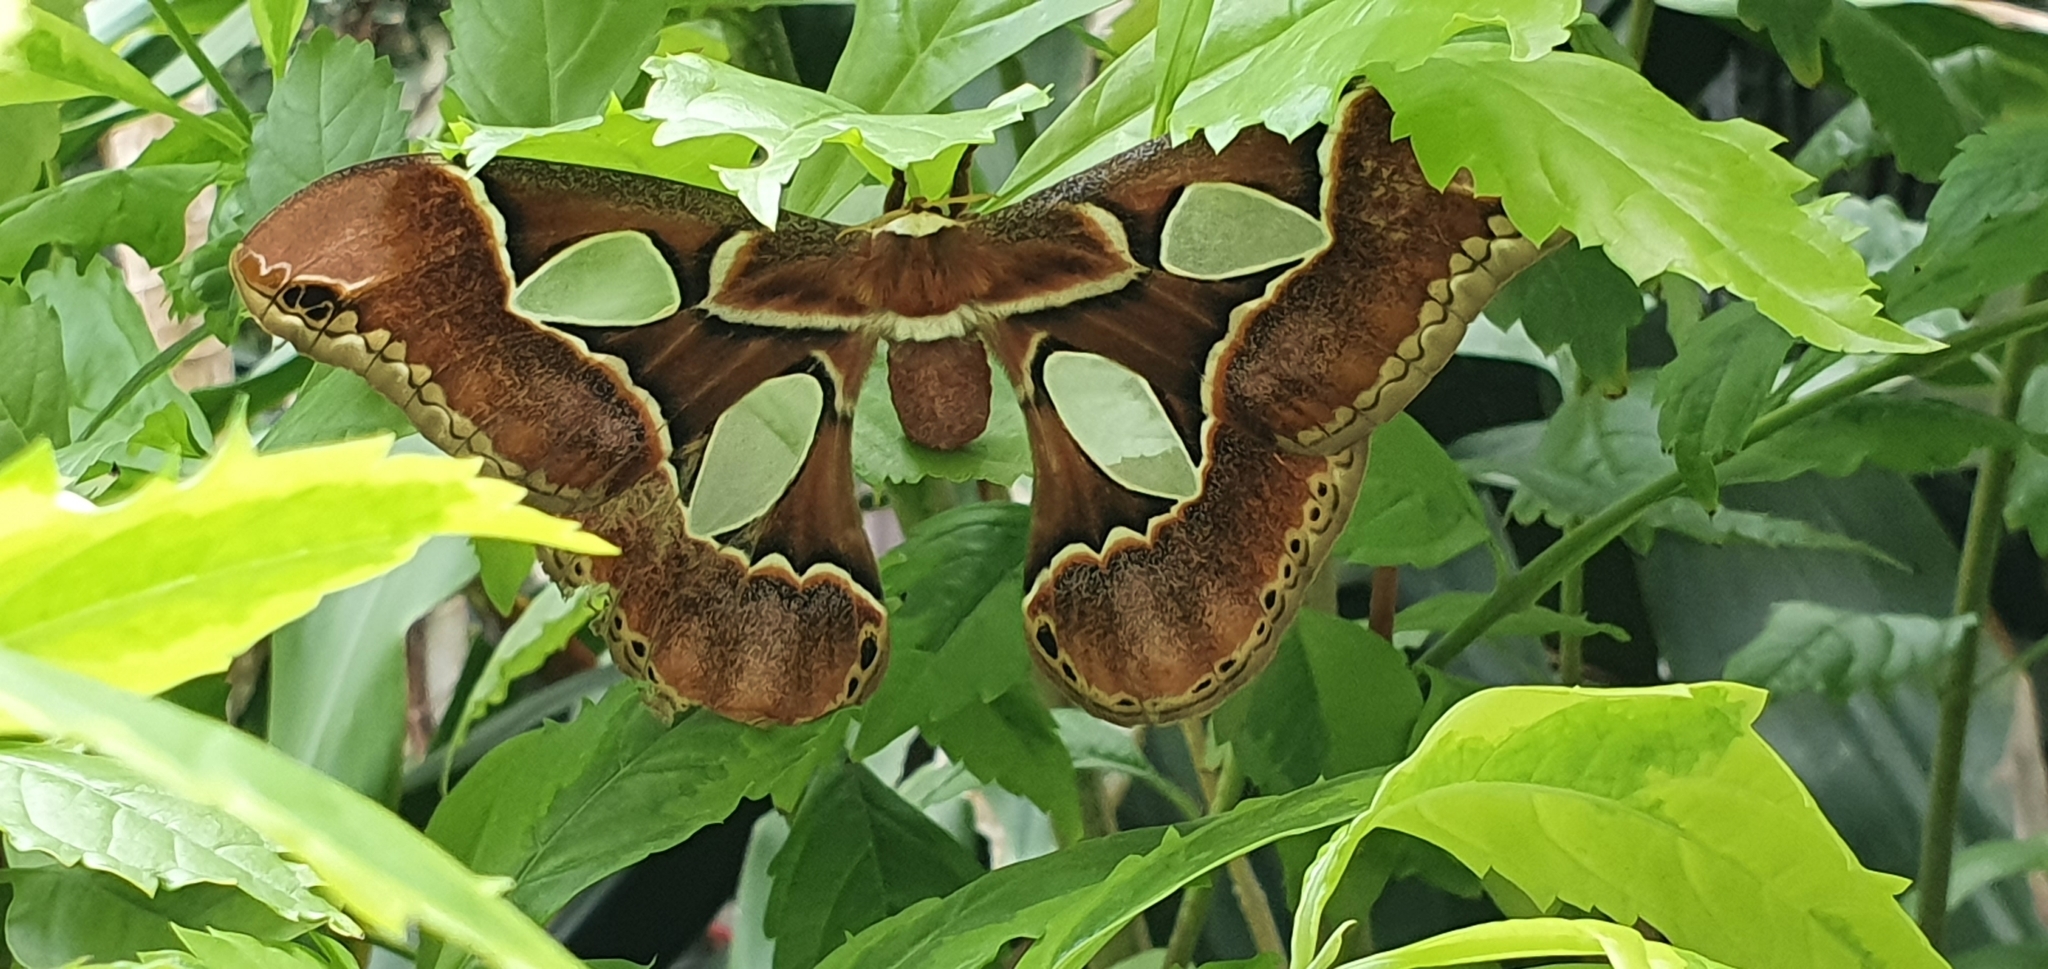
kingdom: Animalia
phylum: Arthropoda
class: Insecta
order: Lepidoptera
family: Saturniidae
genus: Rothschildia
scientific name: Rothschildia lebeau
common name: Lebeau's rothschildia
